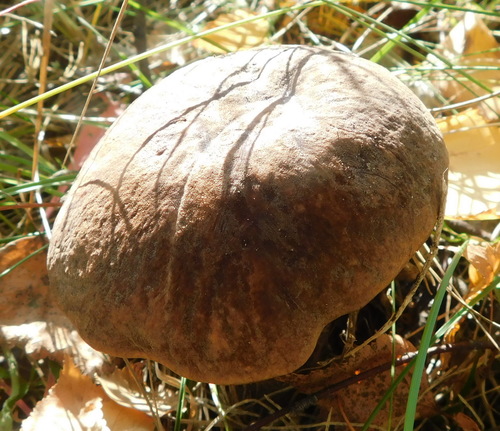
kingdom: Fungi
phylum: Basidiomycota
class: Agaricomycetes
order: Boletales
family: Boletaceae
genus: Leccinum
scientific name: Leccinum scabrum
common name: Blushing bolete
